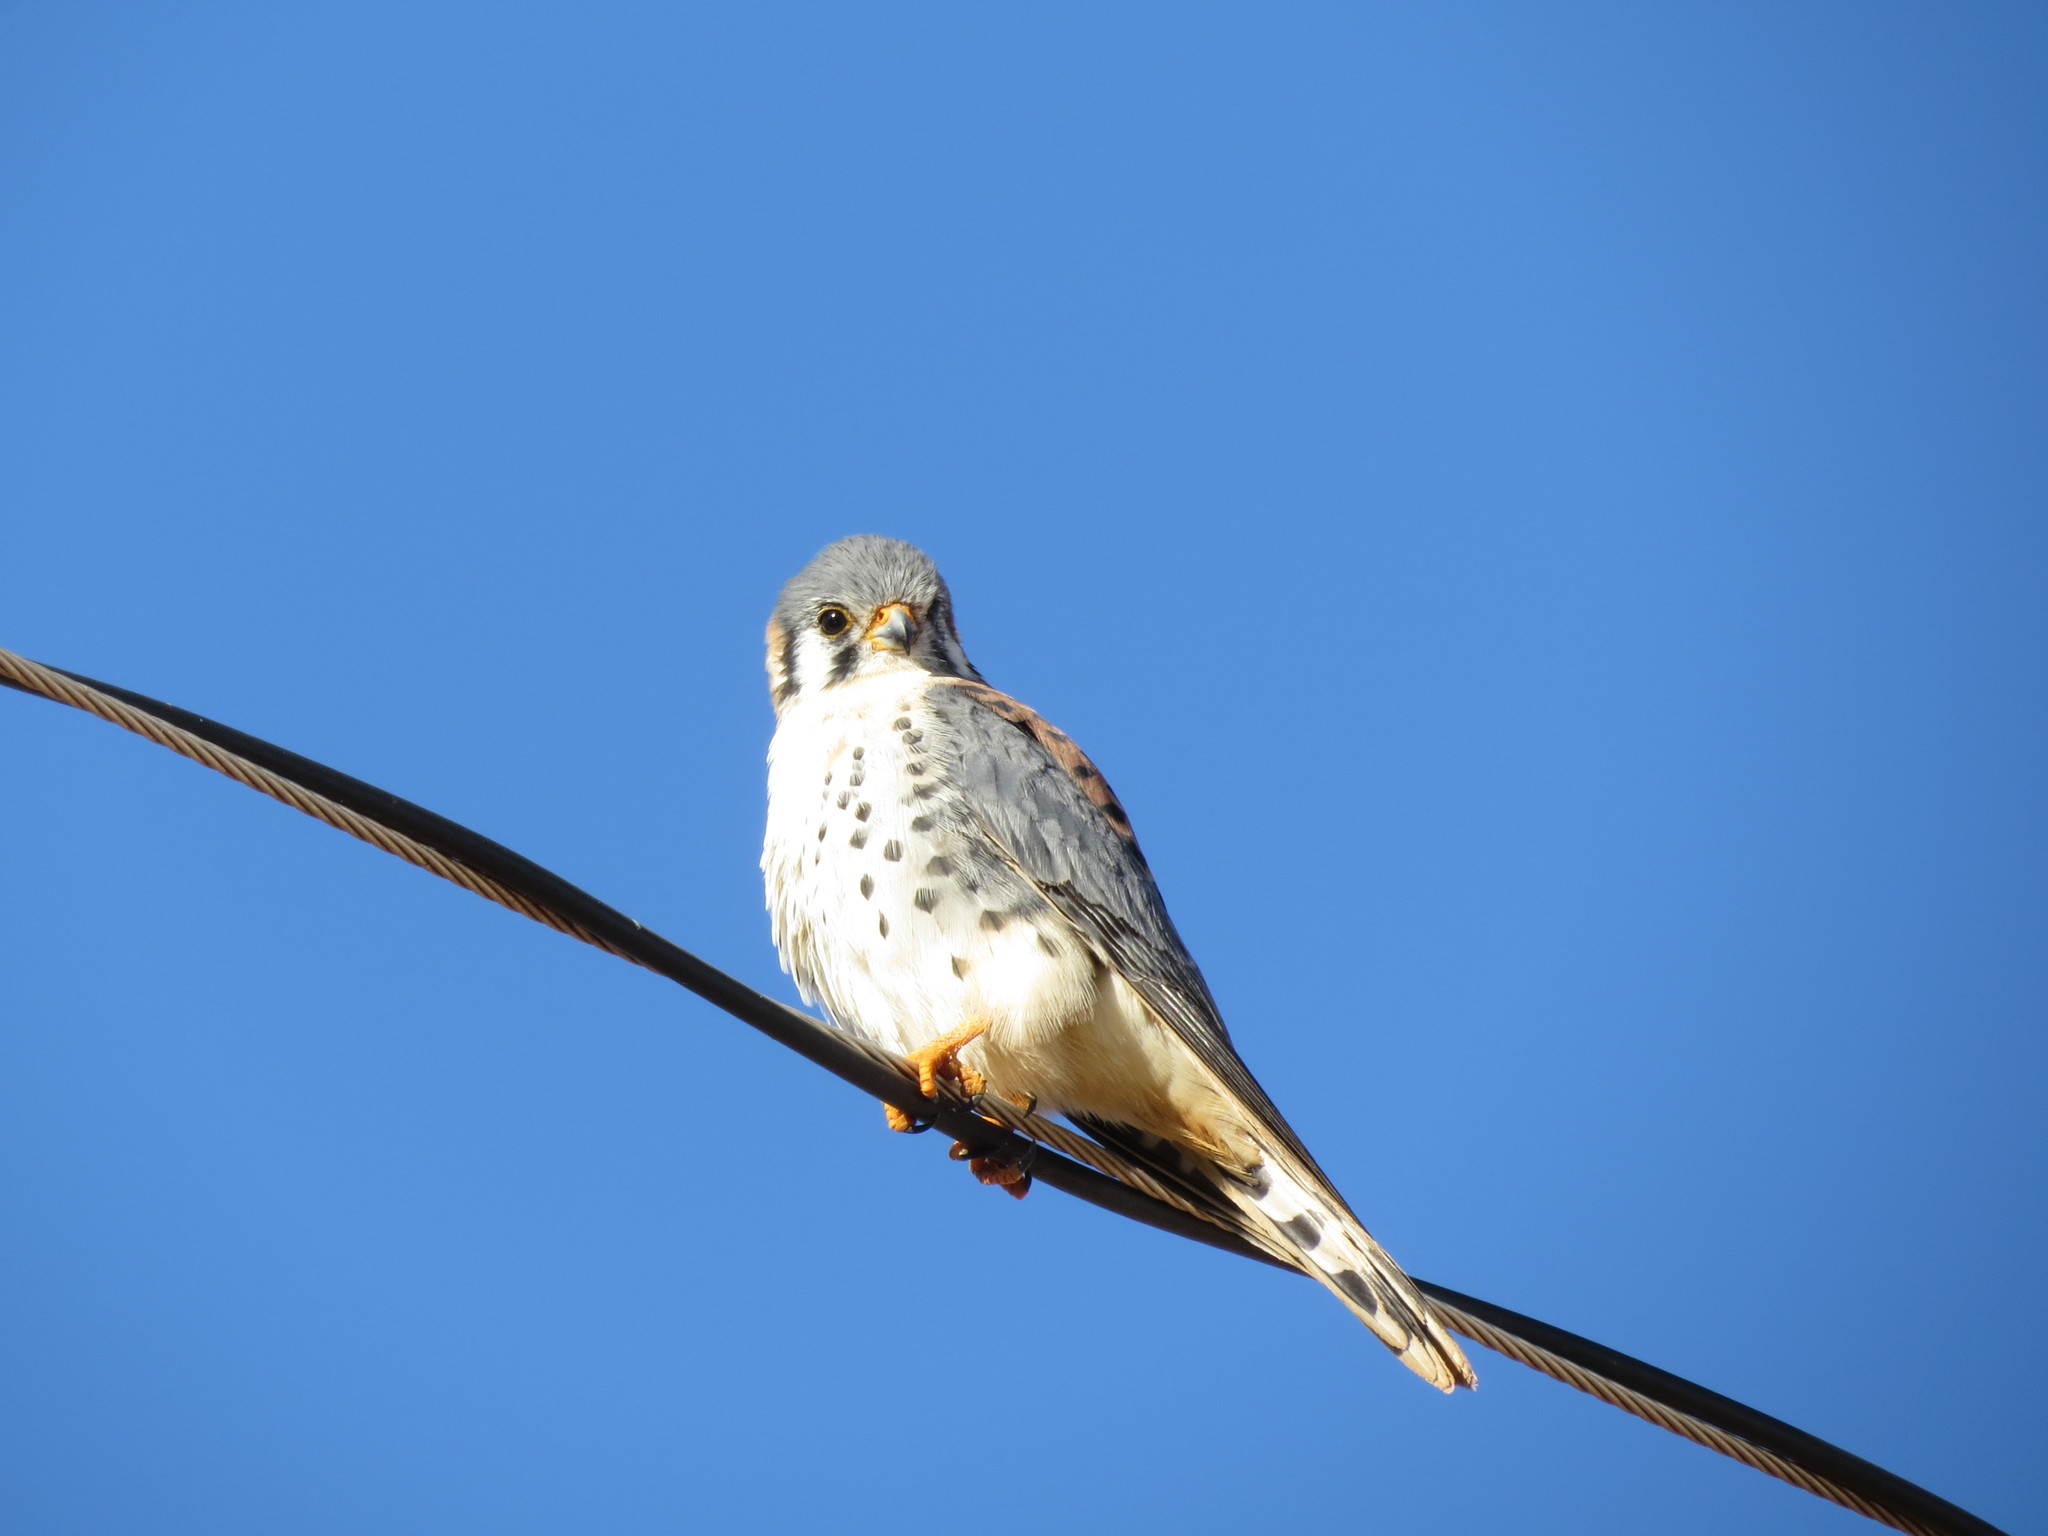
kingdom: Animalia
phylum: Chordata
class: Aves
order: Falconiformes
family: Falconidae
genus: Falco
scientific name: Falco sparverius
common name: American kestrel
